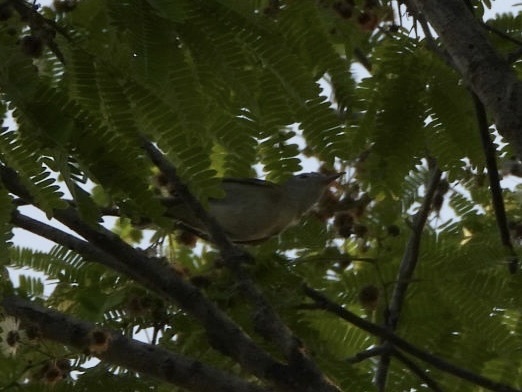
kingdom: Animalia
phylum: Chordata
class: Aves
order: Passeriformes
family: Vireonidae
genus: Hylophilus
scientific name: Hylophilus decurtatus
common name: Lesser greenlet
